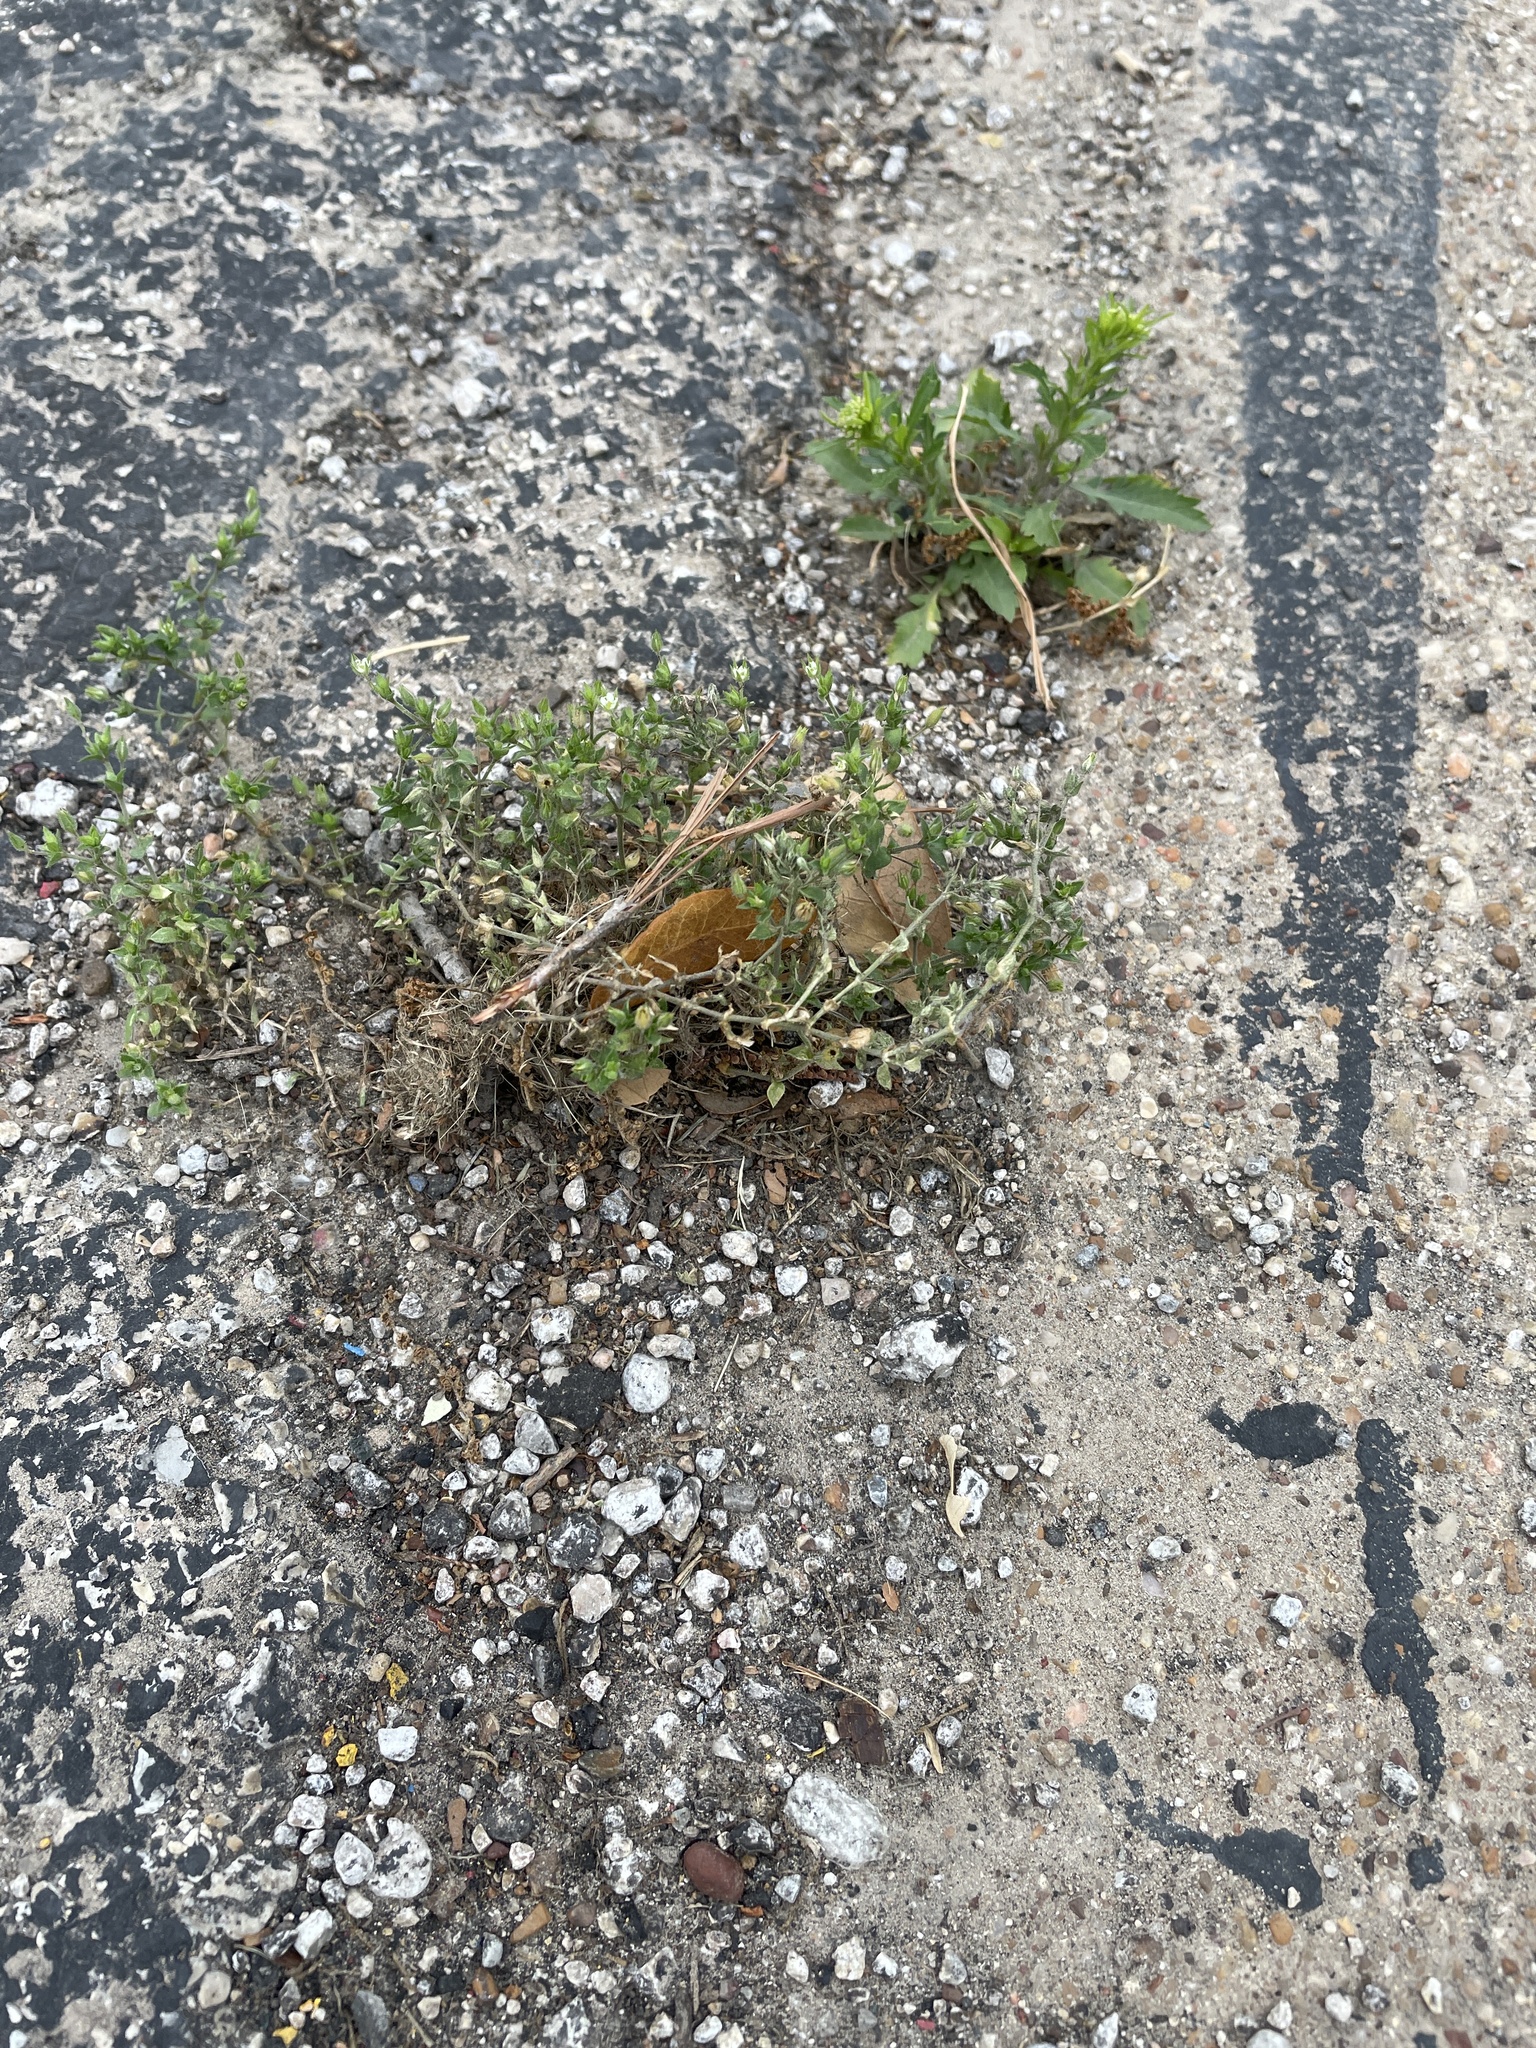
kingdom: Plantae
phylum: Tracheophyta
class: Magnoliopsida
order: Caryophyllales
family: Caryophyllaceae
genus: Arenaria
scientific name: Arenaria serpyllifolia
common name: Thyme-leaved sandwort
